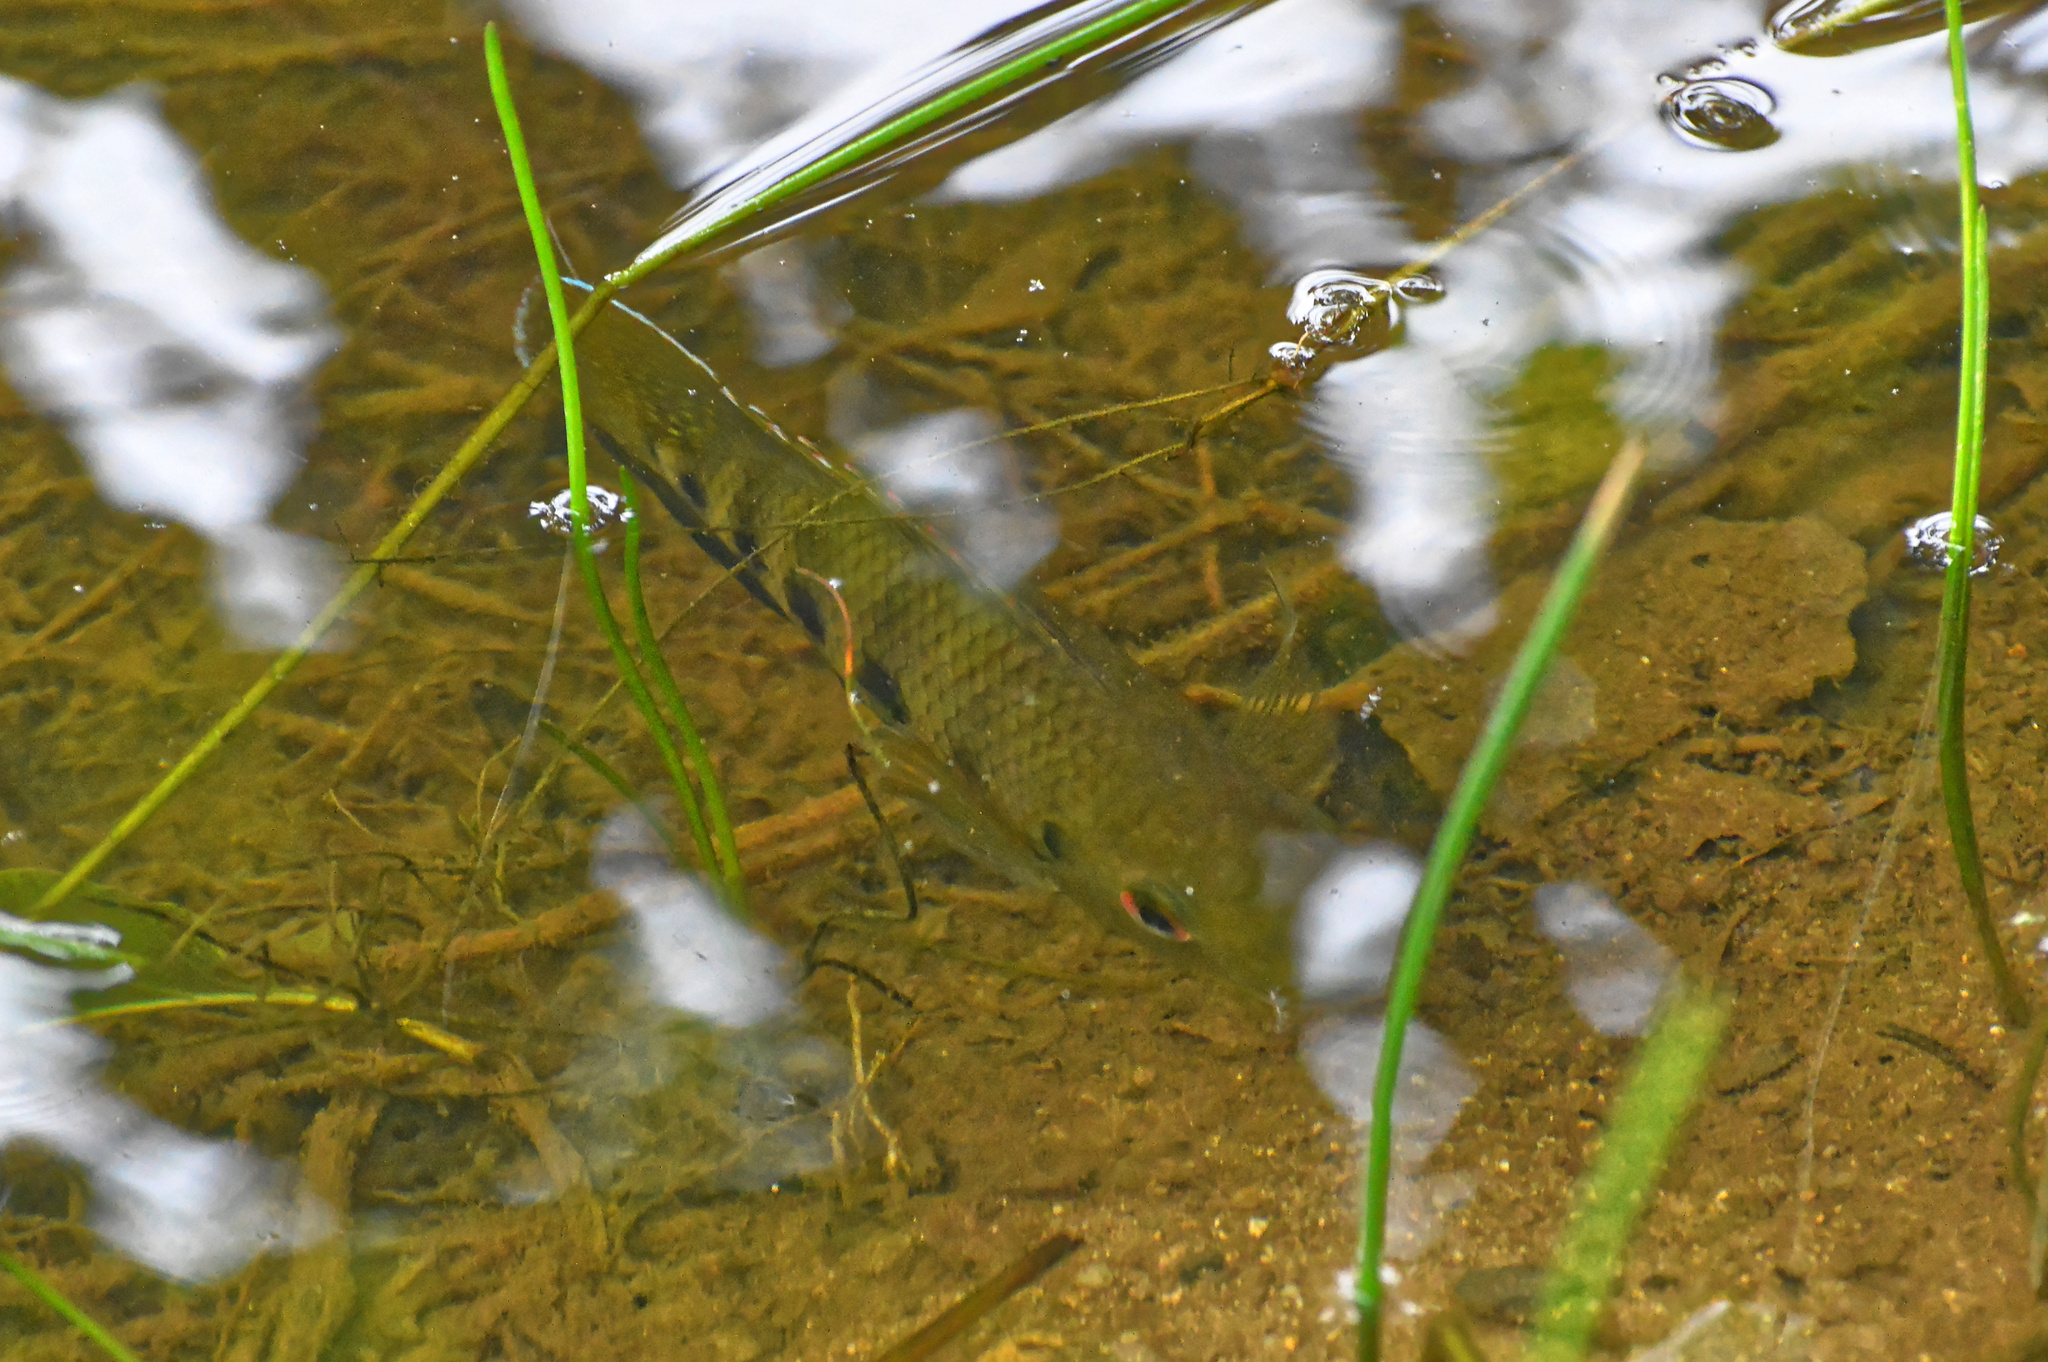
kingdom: Animalia
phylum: Chordata
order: Perciformes
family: Cichlidae
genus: Pelmatolapia
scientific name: Pelmatolapia mariae
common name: Spotted tilapia
